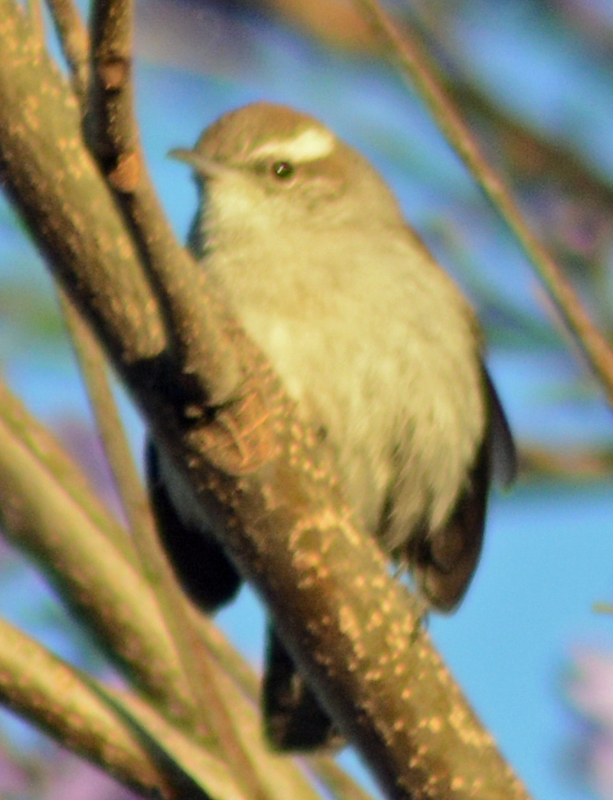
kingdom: Animalia
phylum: Chordata
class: Aves
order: Passeriformes
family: Troglodytidae
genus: Thryomanes
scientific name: Thryomanes bewickii
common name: Bewick's wren
